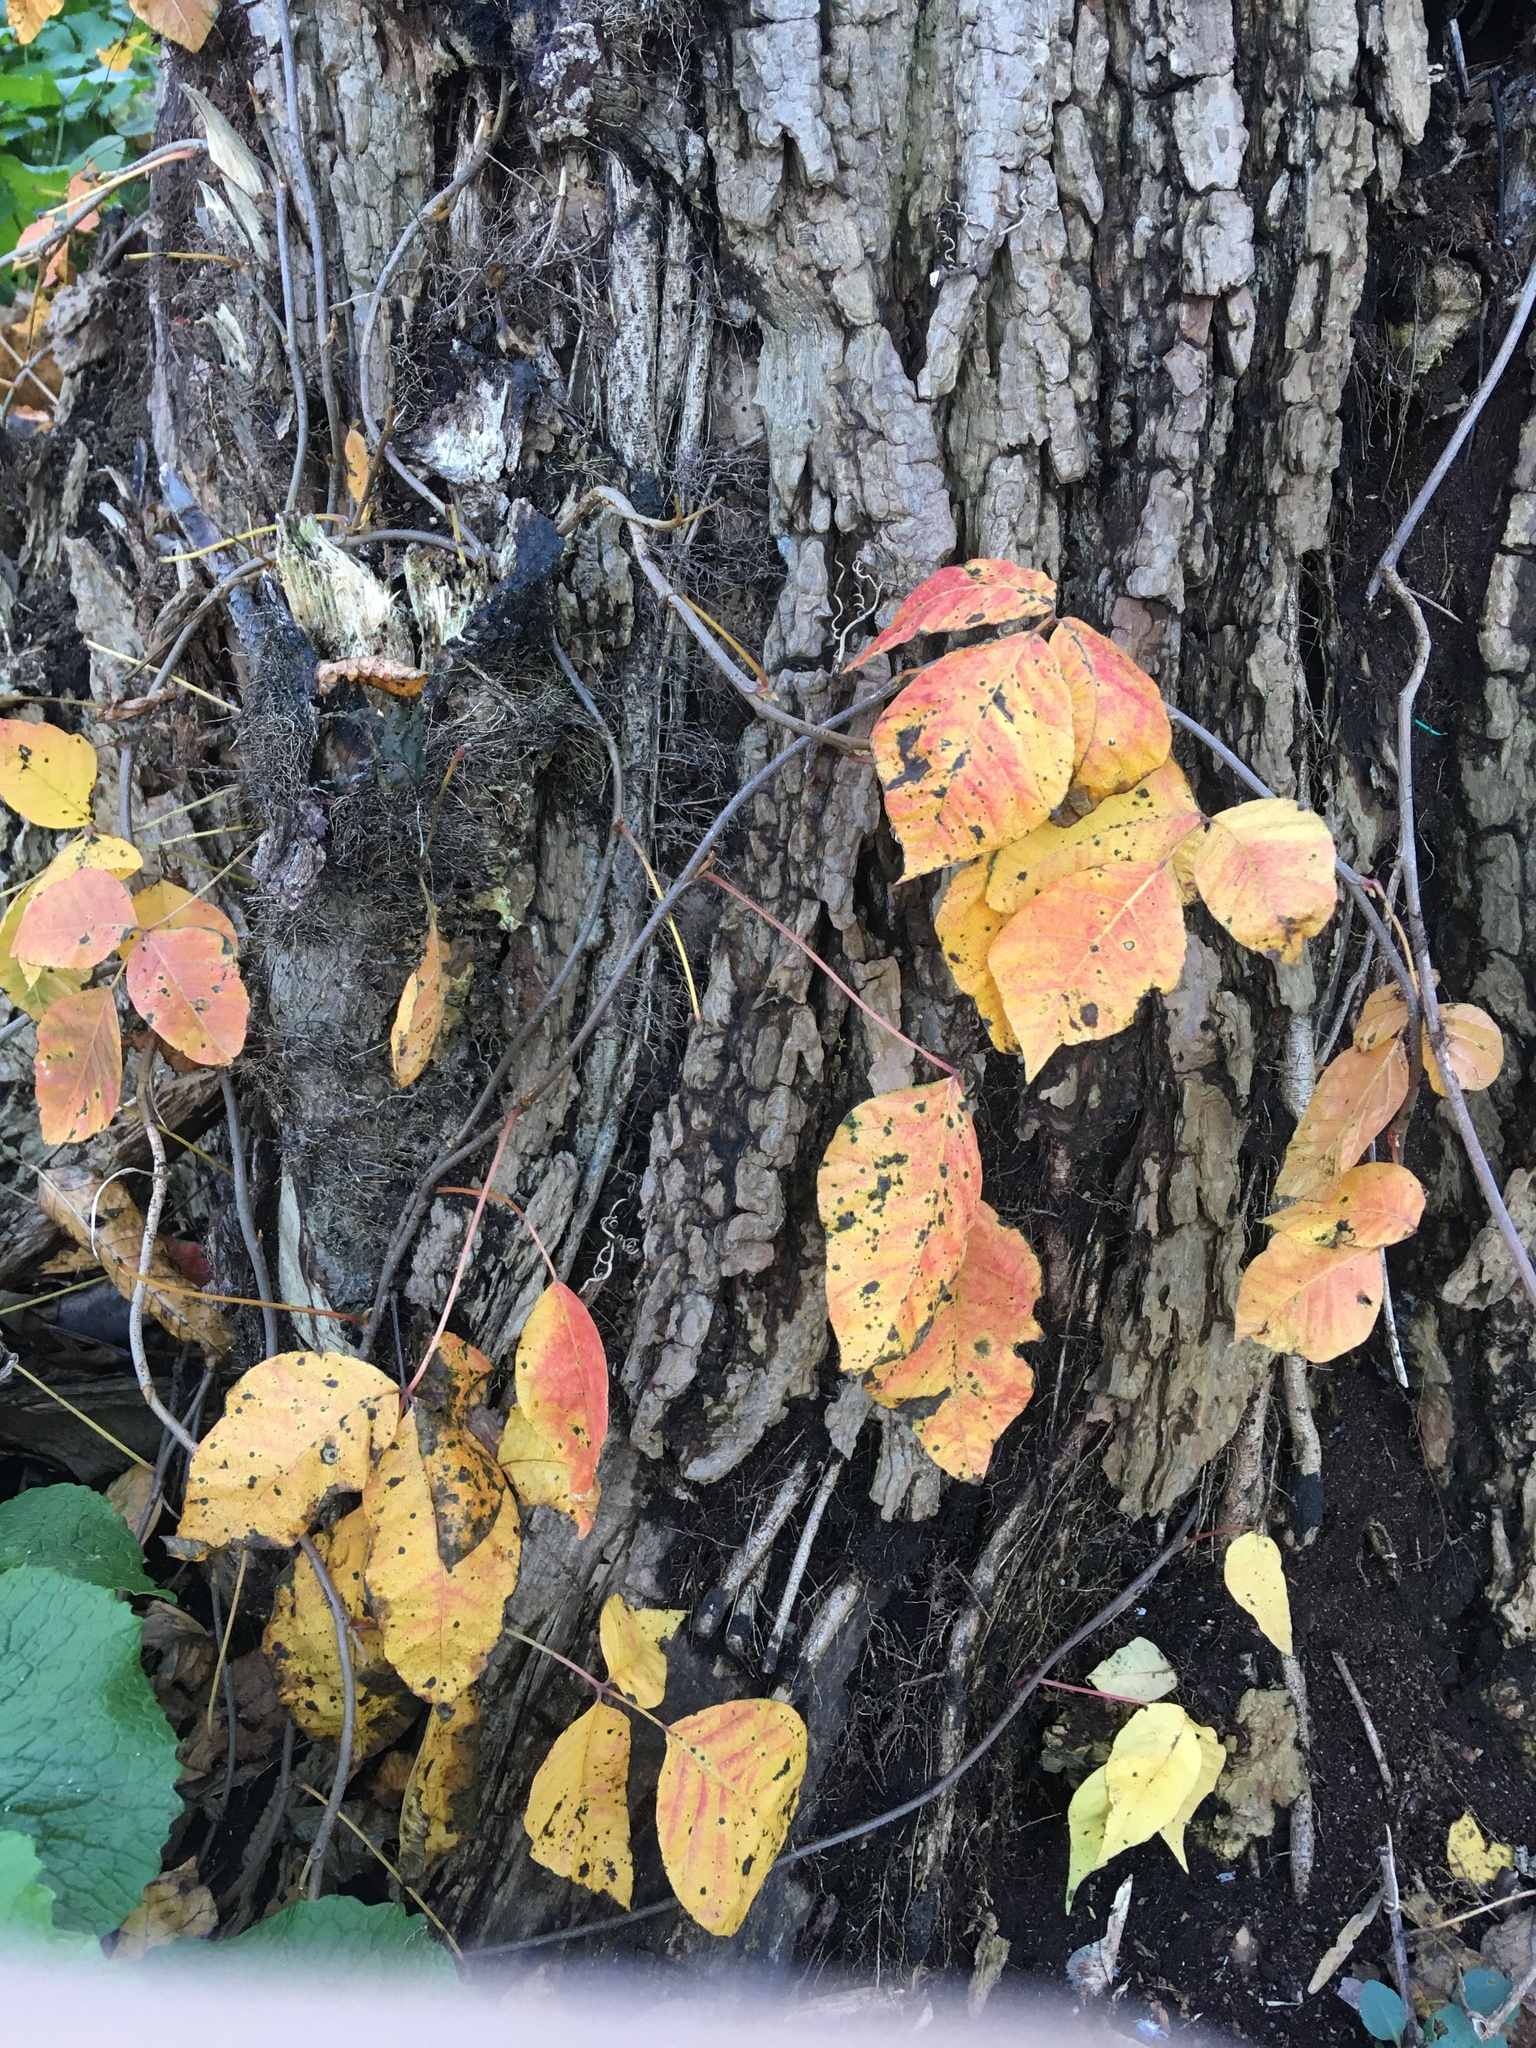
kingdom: Plantae
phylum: Tracheophyta
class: Magnoliopsida
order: Sapindales
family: Anacardiaceae
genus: Toxicodendron
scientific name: Toxicodendron radicans
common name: Poison ivy
